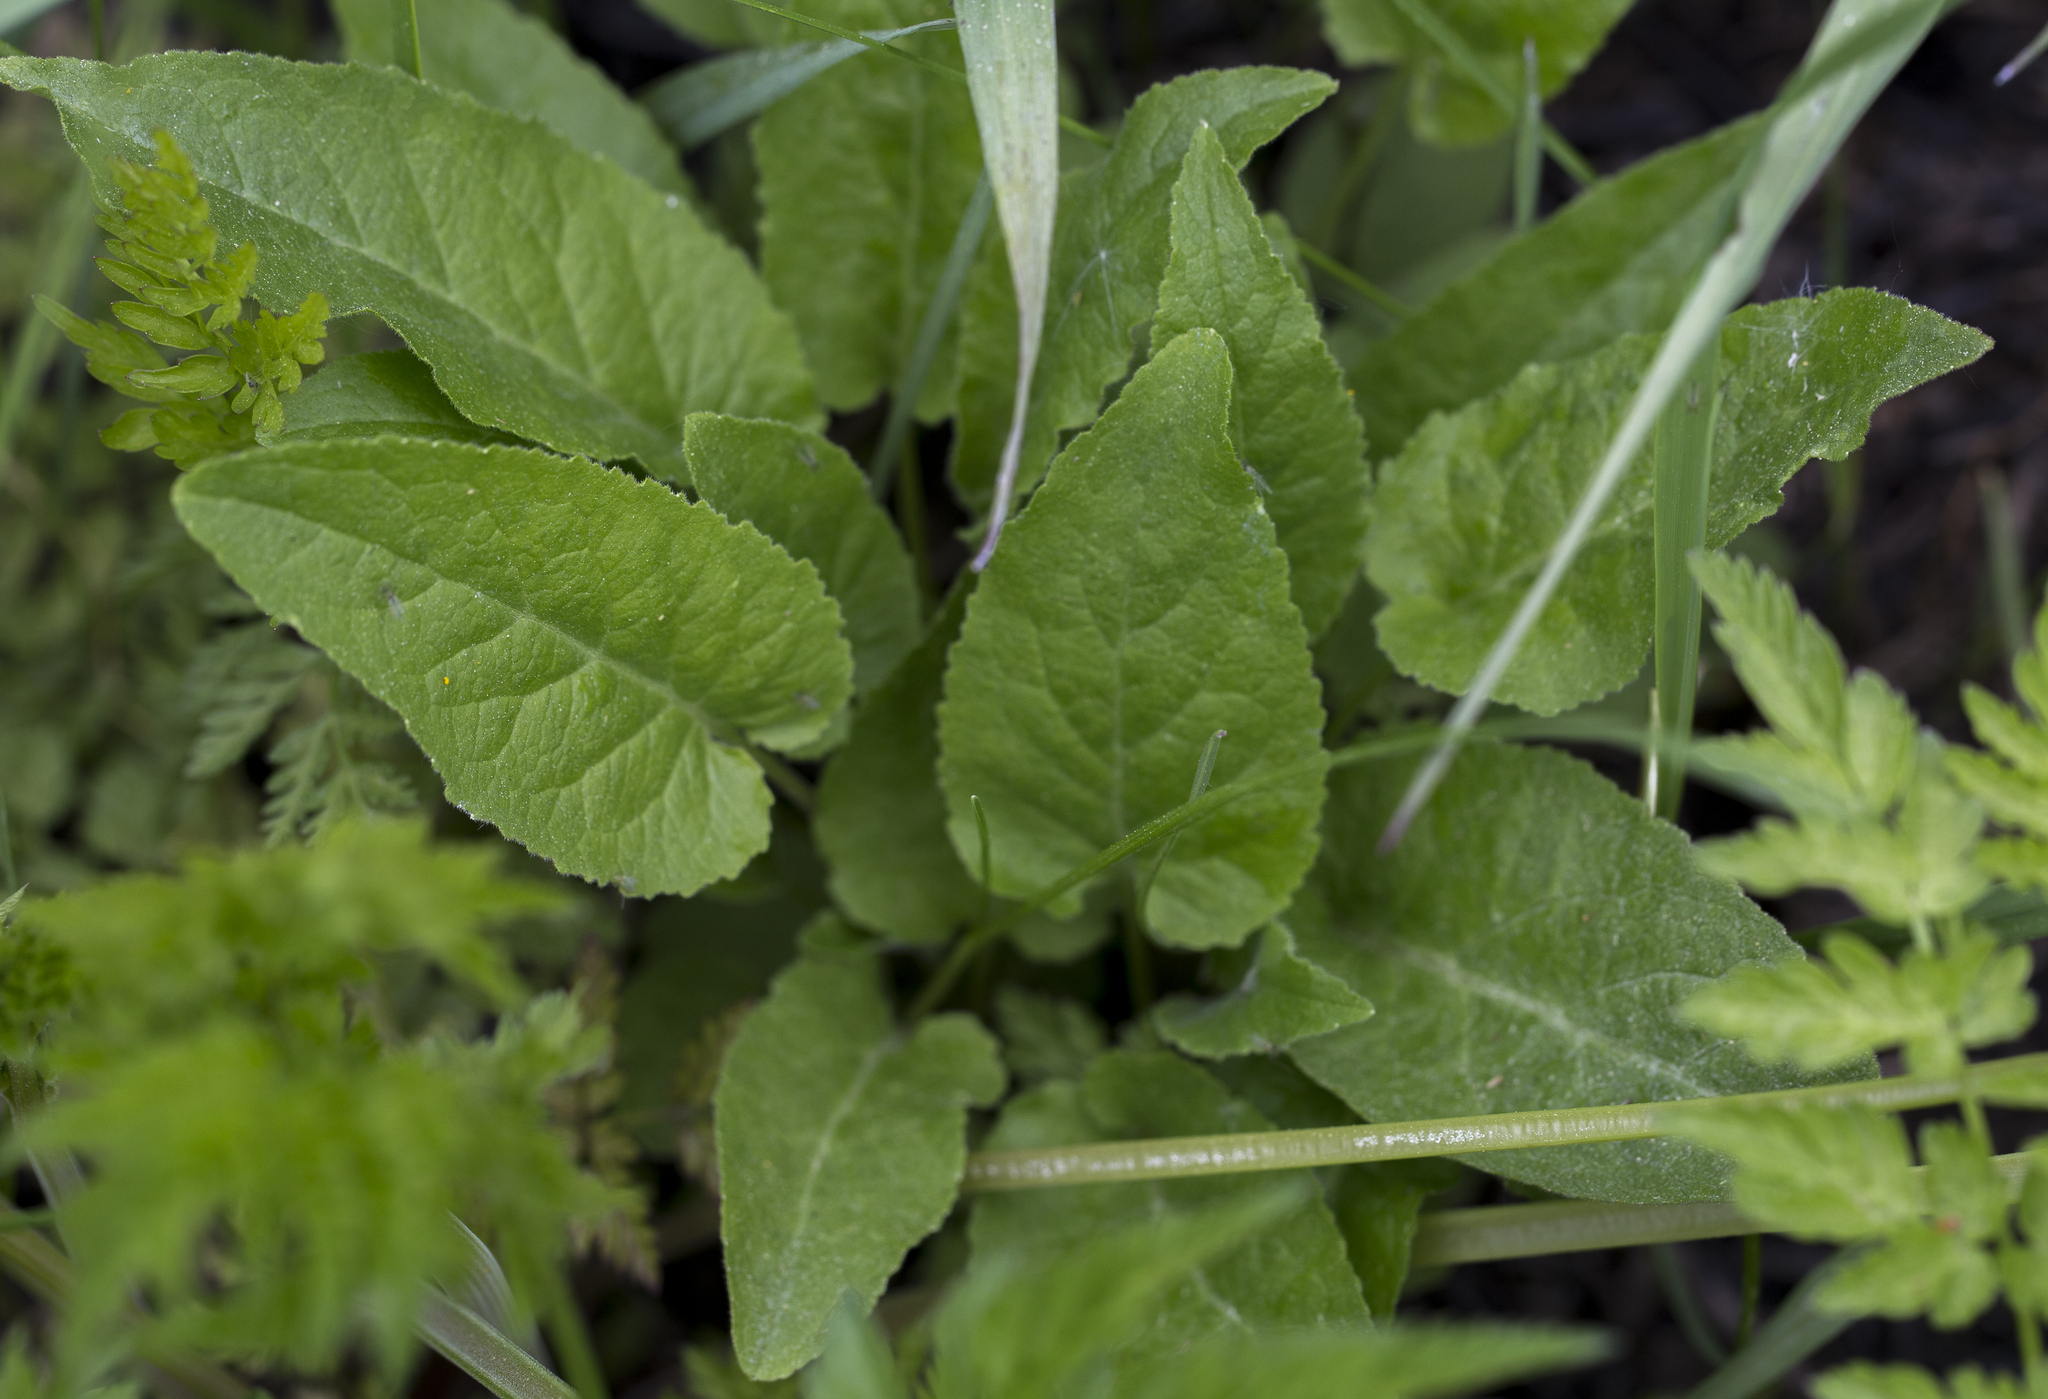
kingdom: Plantae
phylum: Tracheophyta
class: Magnoliopsida
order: Asterales
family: Campanulaceae
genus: Campanula
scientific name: Campanula glomerata
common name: Clustered bellflower
